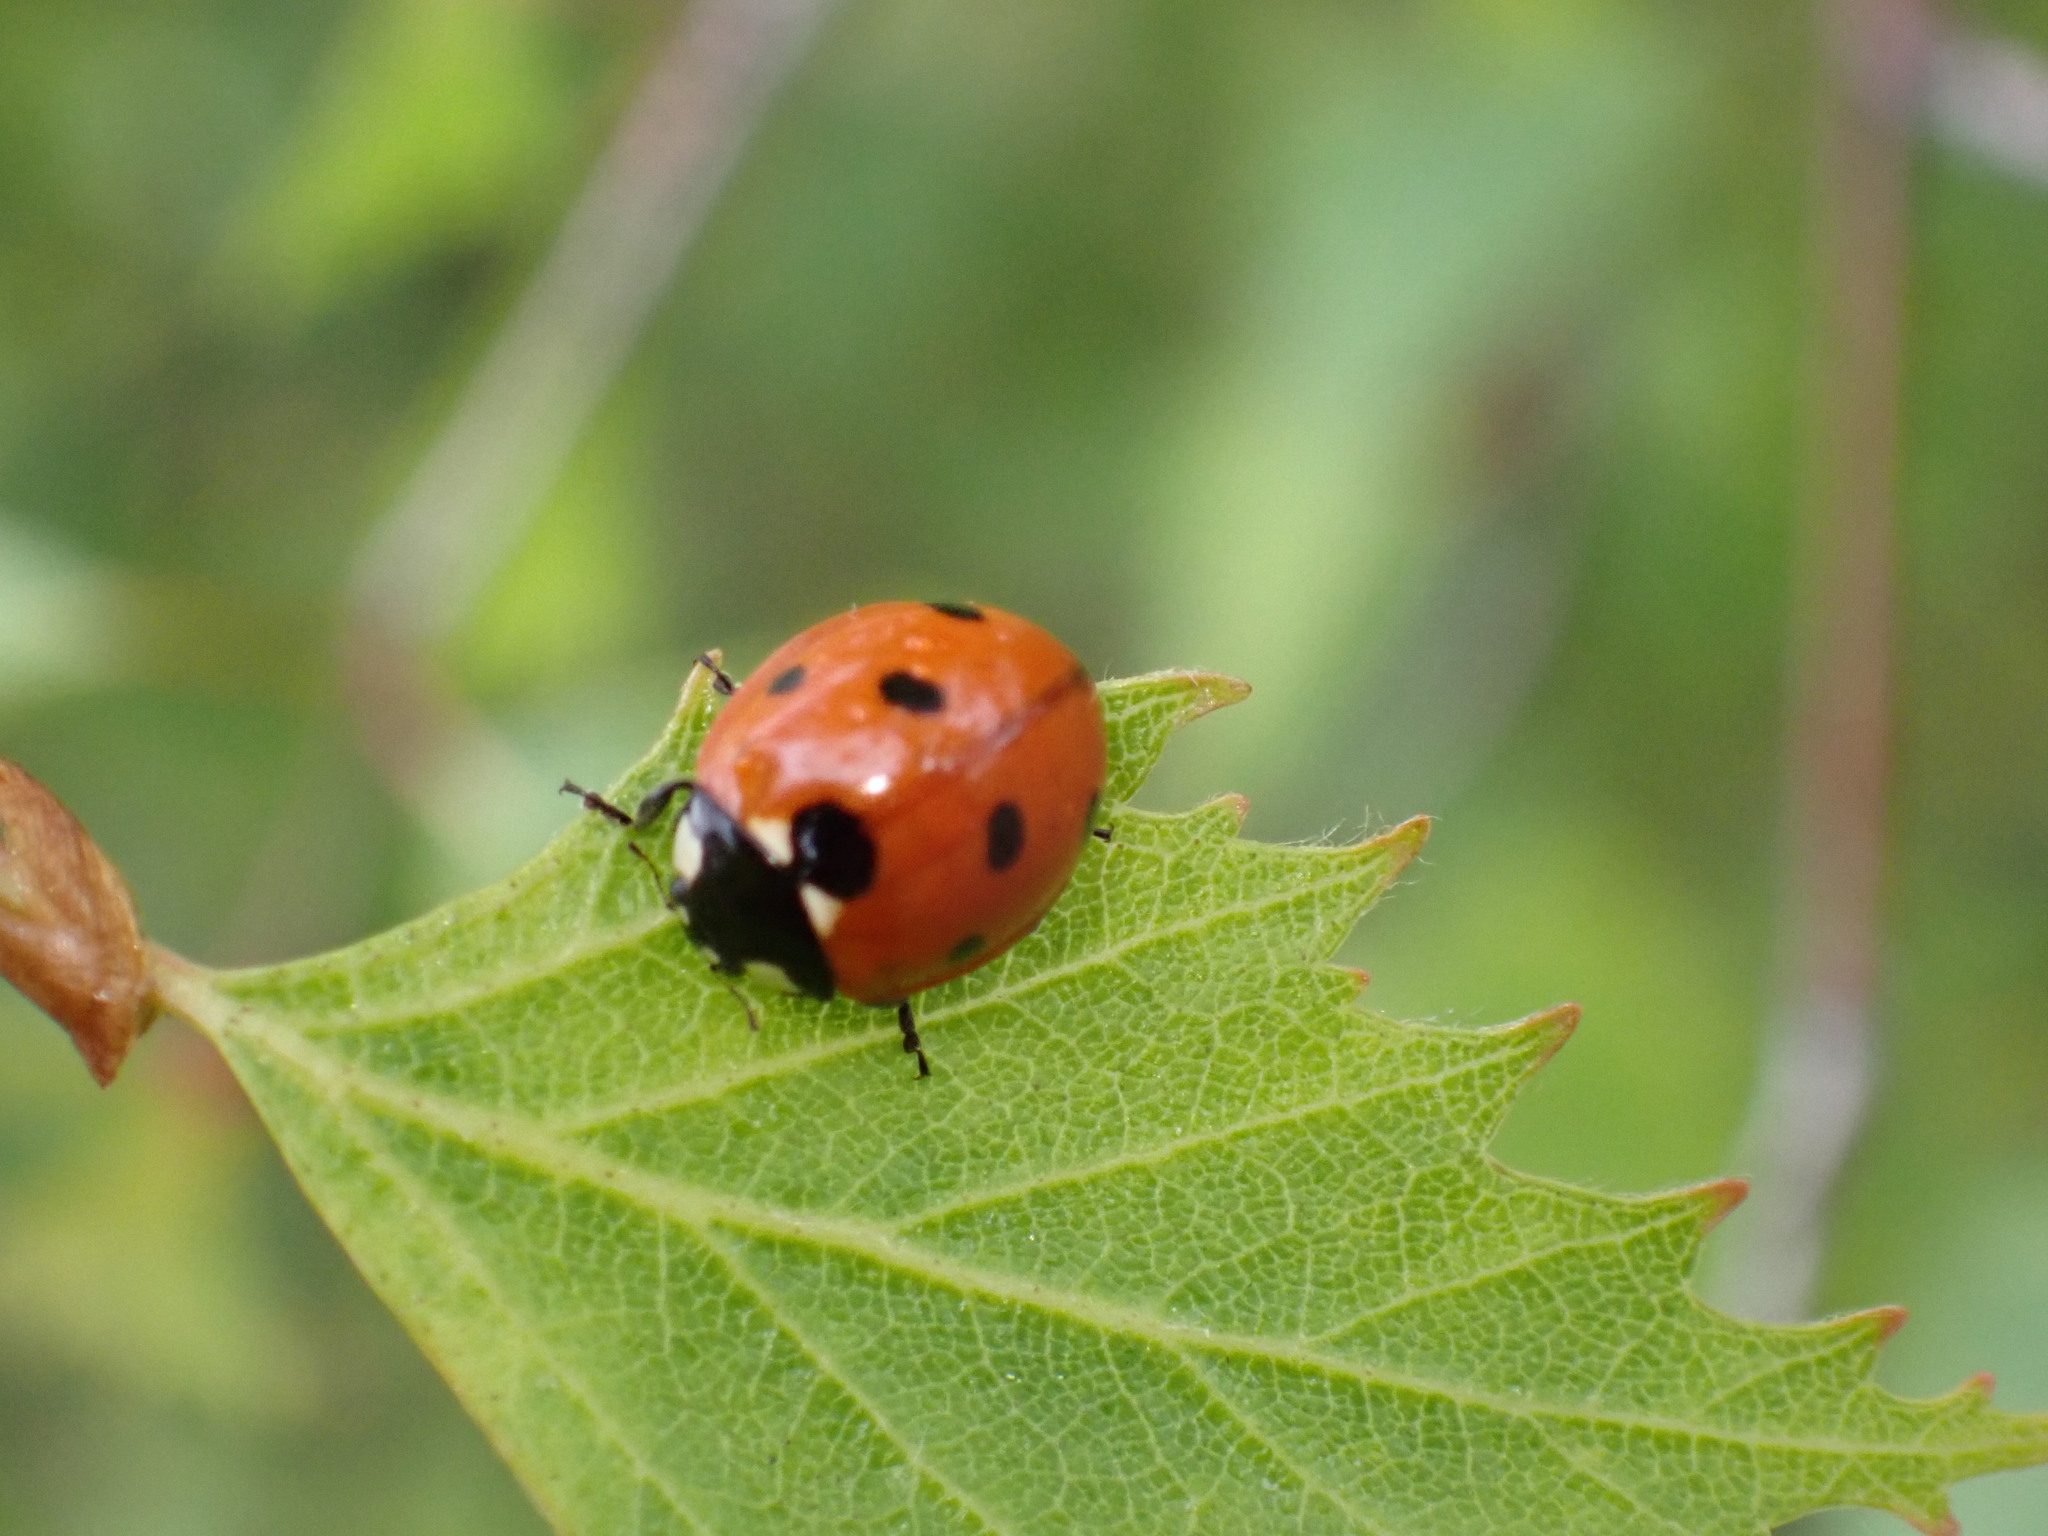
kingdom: Animalia
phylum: Arthropoda
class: Insecta
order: Coleoptera
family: Coccinellidae
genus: Coccinella
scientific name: Coccinella septempunctata
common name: Sevenspotted lady beetle
